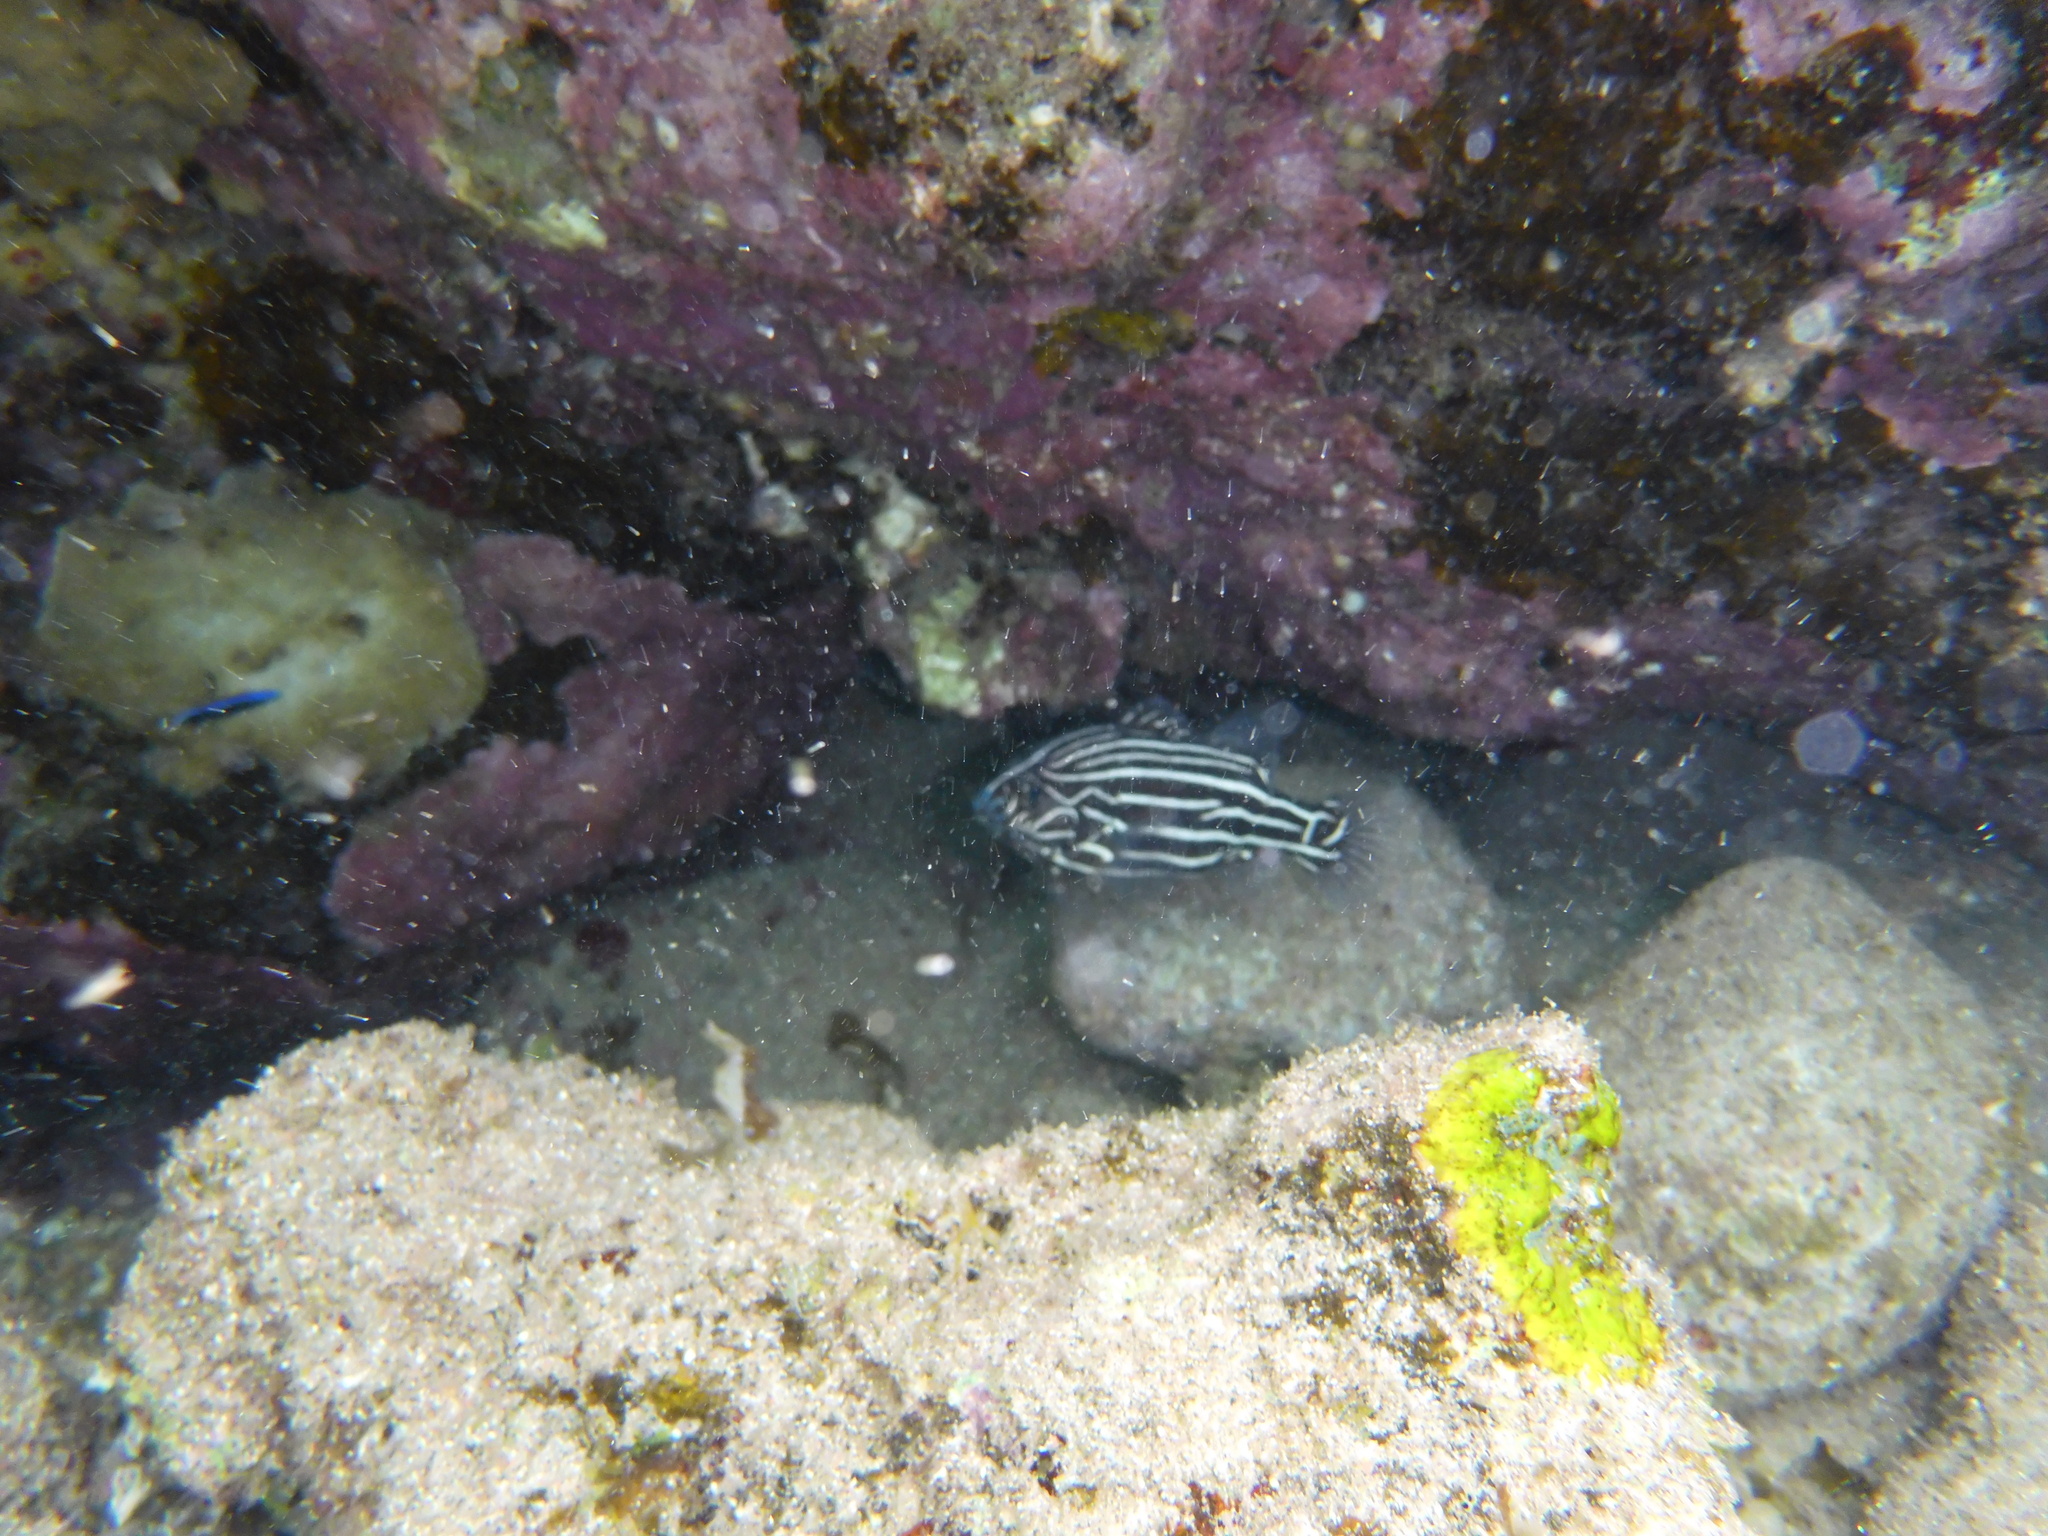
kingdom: Animalia
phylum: Chordata
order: Perciformes
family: Serranidae
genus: Grammistes
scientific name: Grammistes sexlineatus
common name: Sixline soapfish
